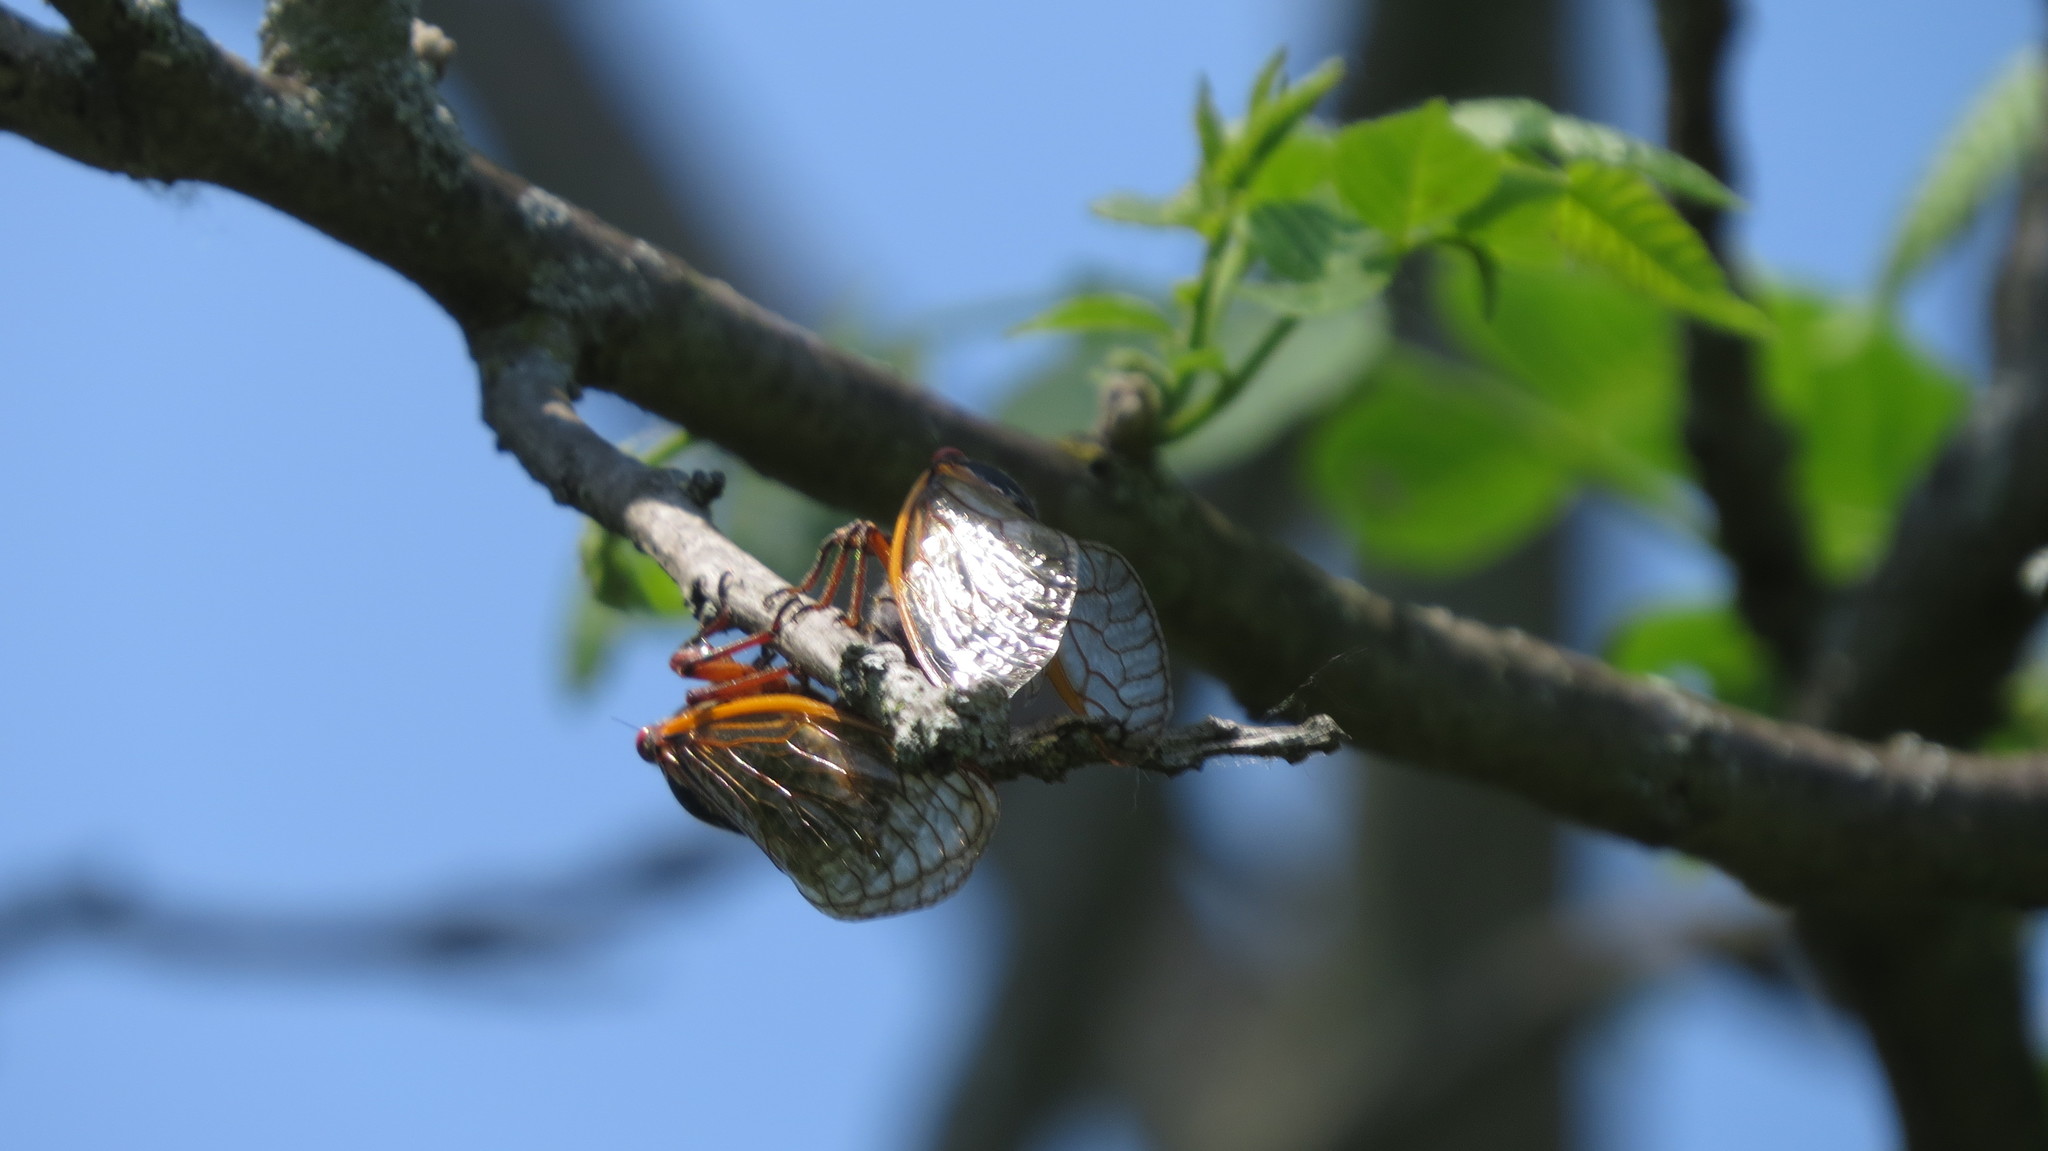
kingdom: Animalia
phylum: Arthropoda
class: Insecta
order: Hemiptera
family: Cicadidae
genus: Magicicada
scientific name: Magicicada septendecim
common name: Periodical cicada
